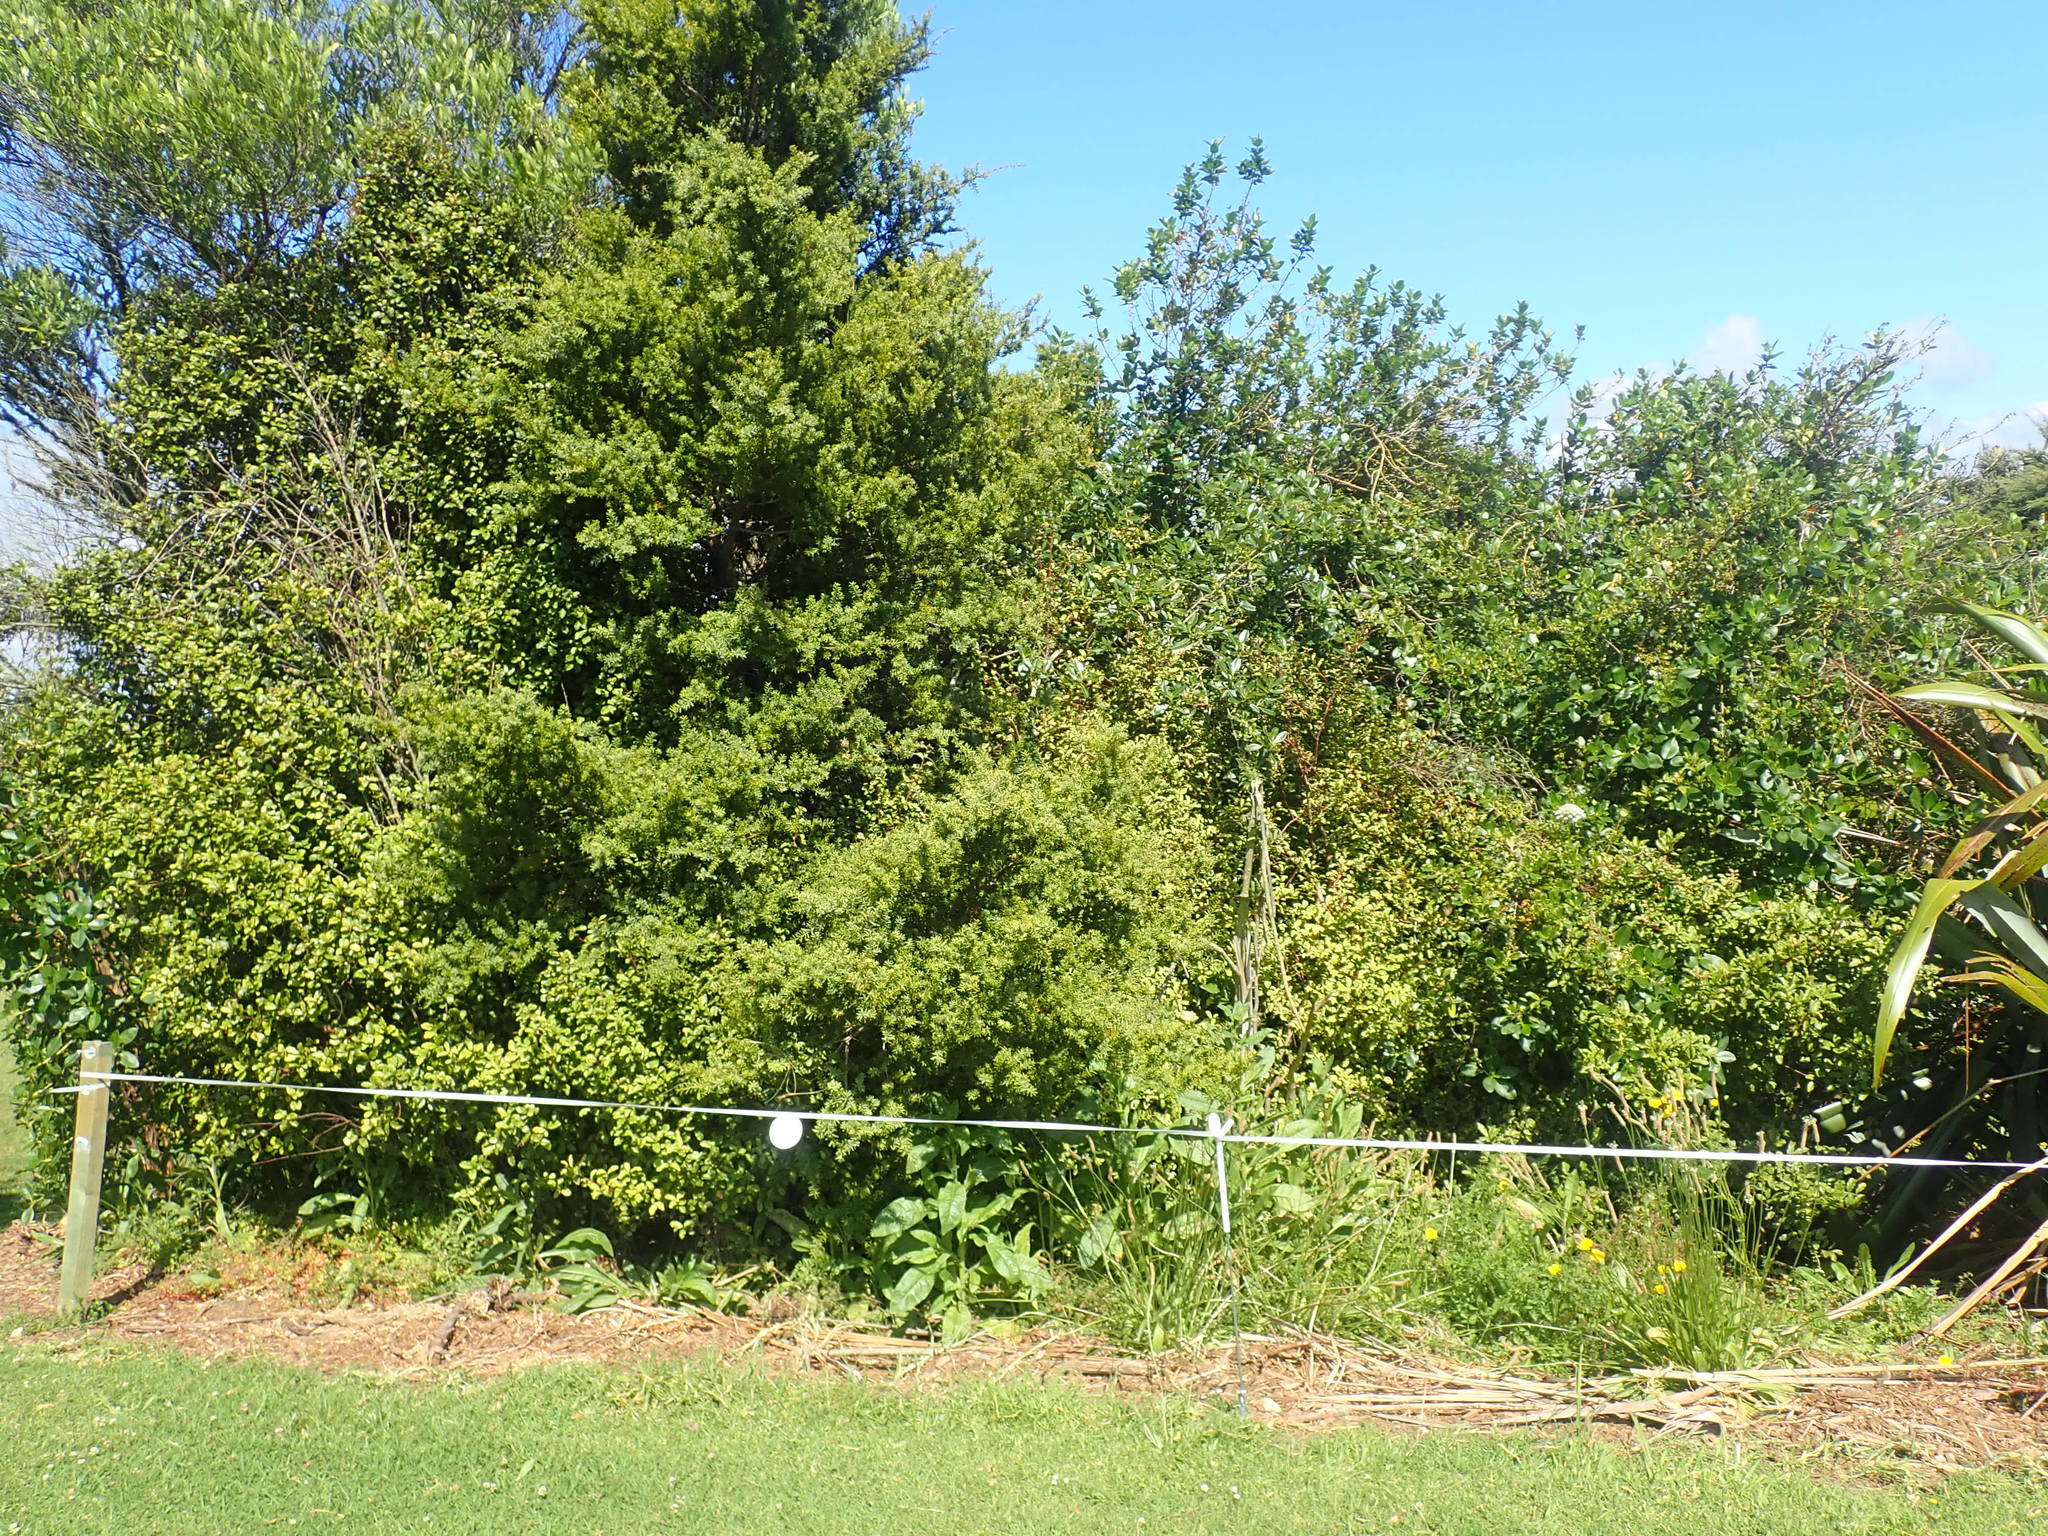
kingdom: Plantae
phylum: Tracheophyta
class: Magnoliopsida
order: Gentianales
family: Rubiaceae
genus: Coprosma
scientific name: Coprosma robusta
